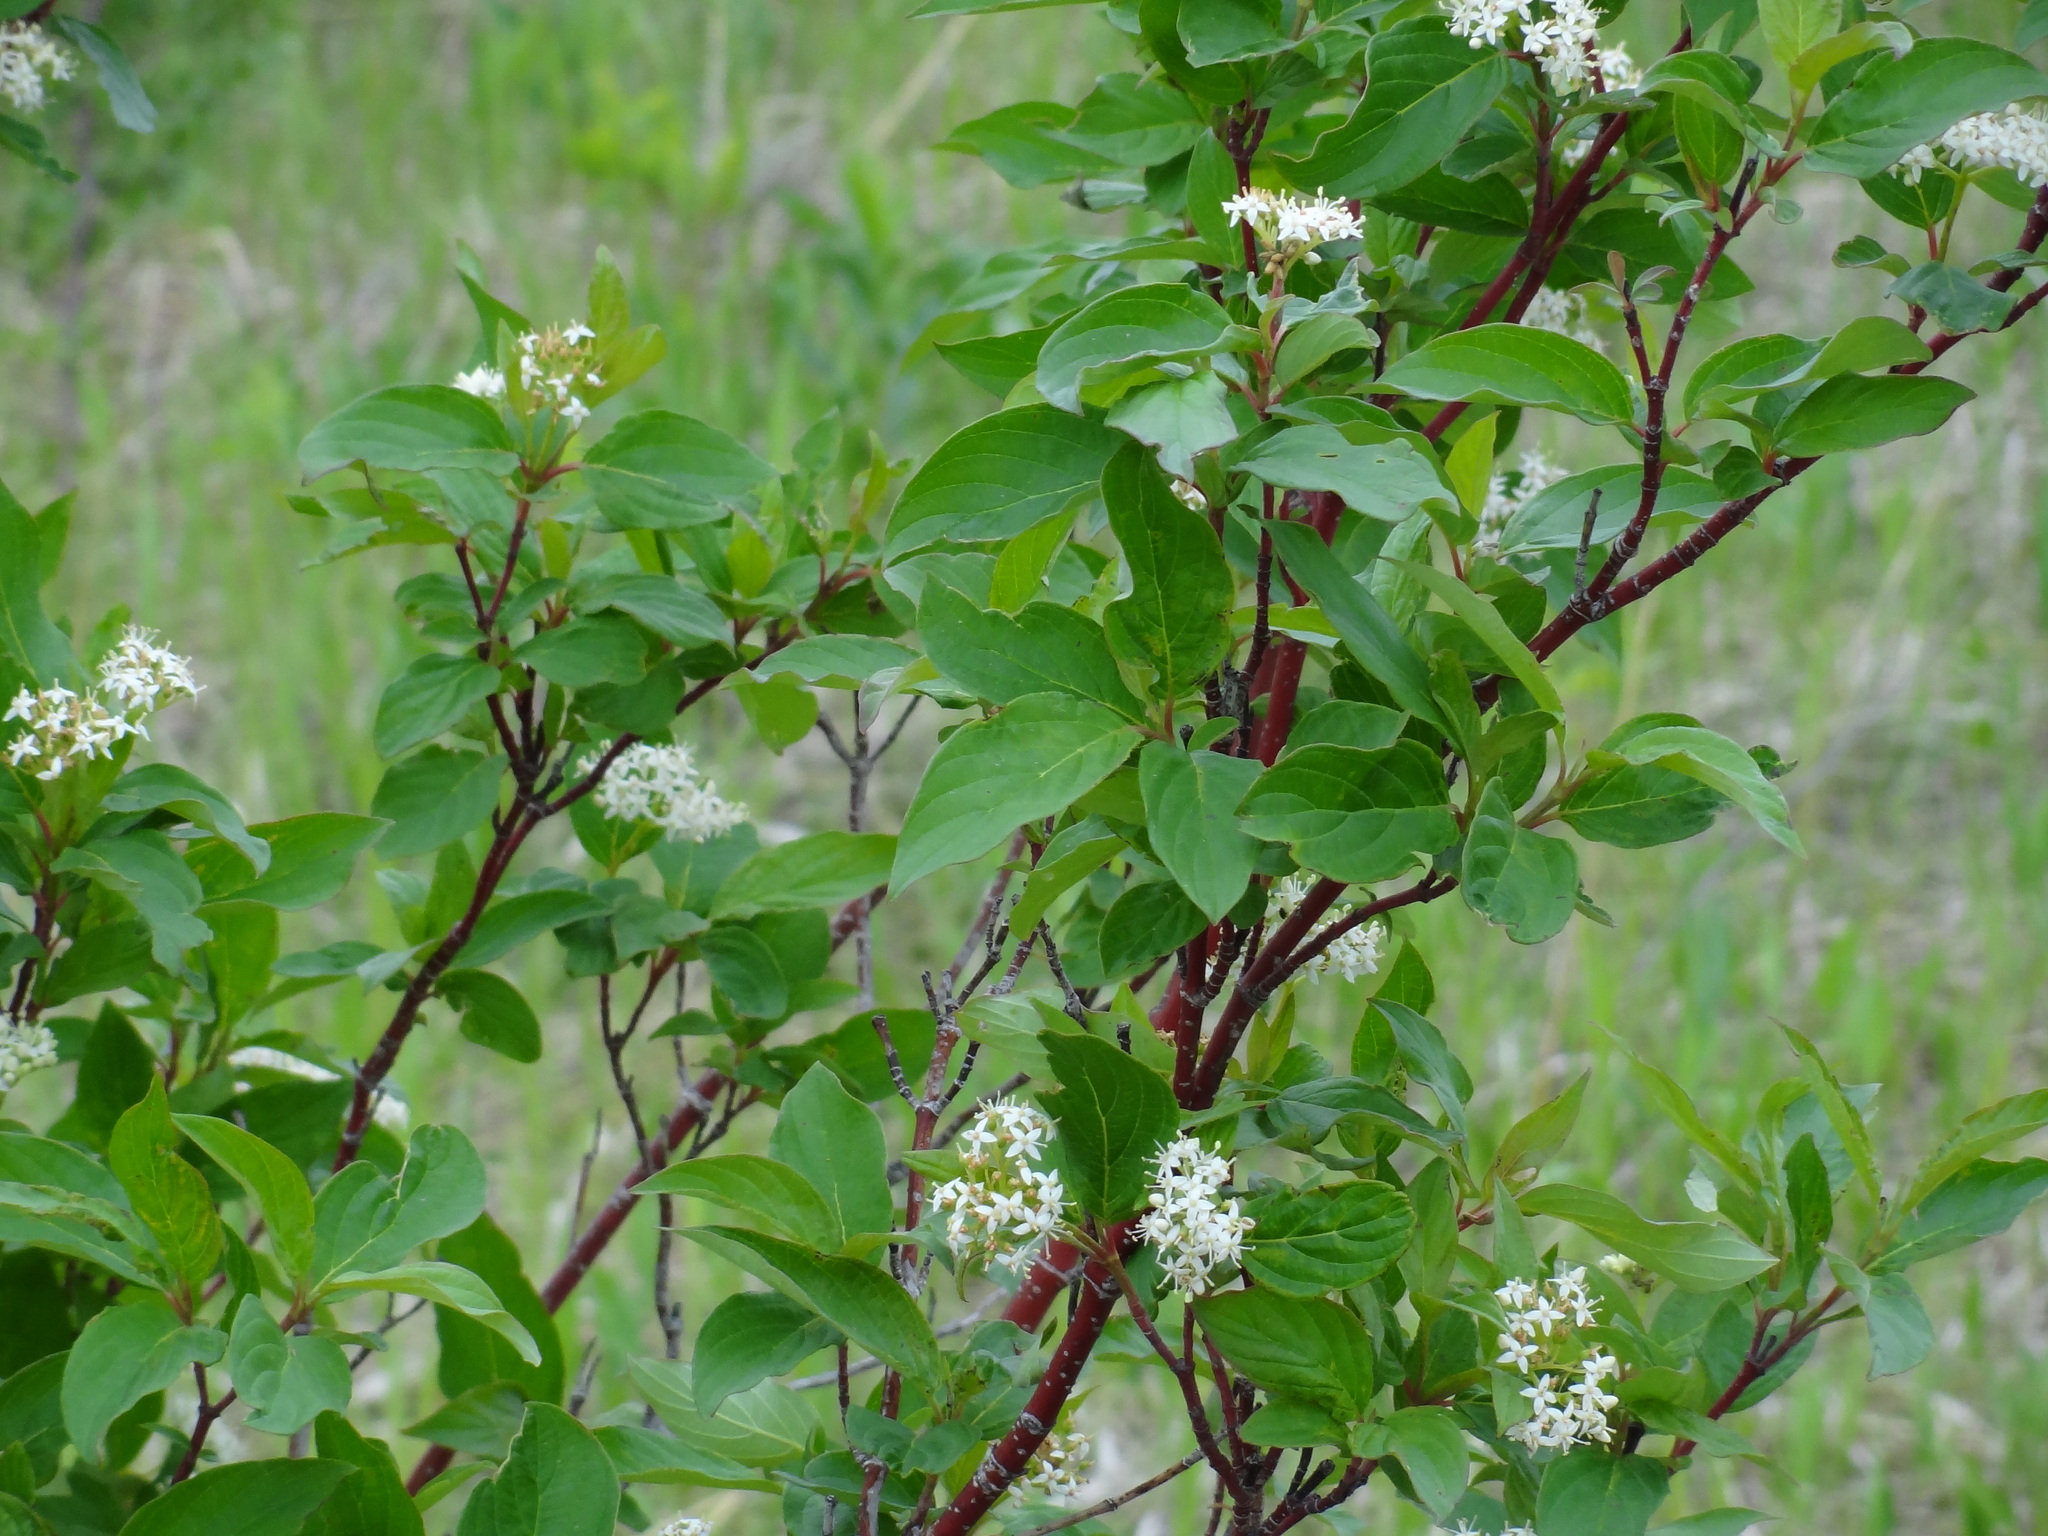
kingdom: Plantae
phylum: Tracheophyta
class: Magnoliopsida
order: Cornales
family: Cornaceae
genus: Cornus
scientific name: Cornus sericea
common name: Red-osier dogwood
